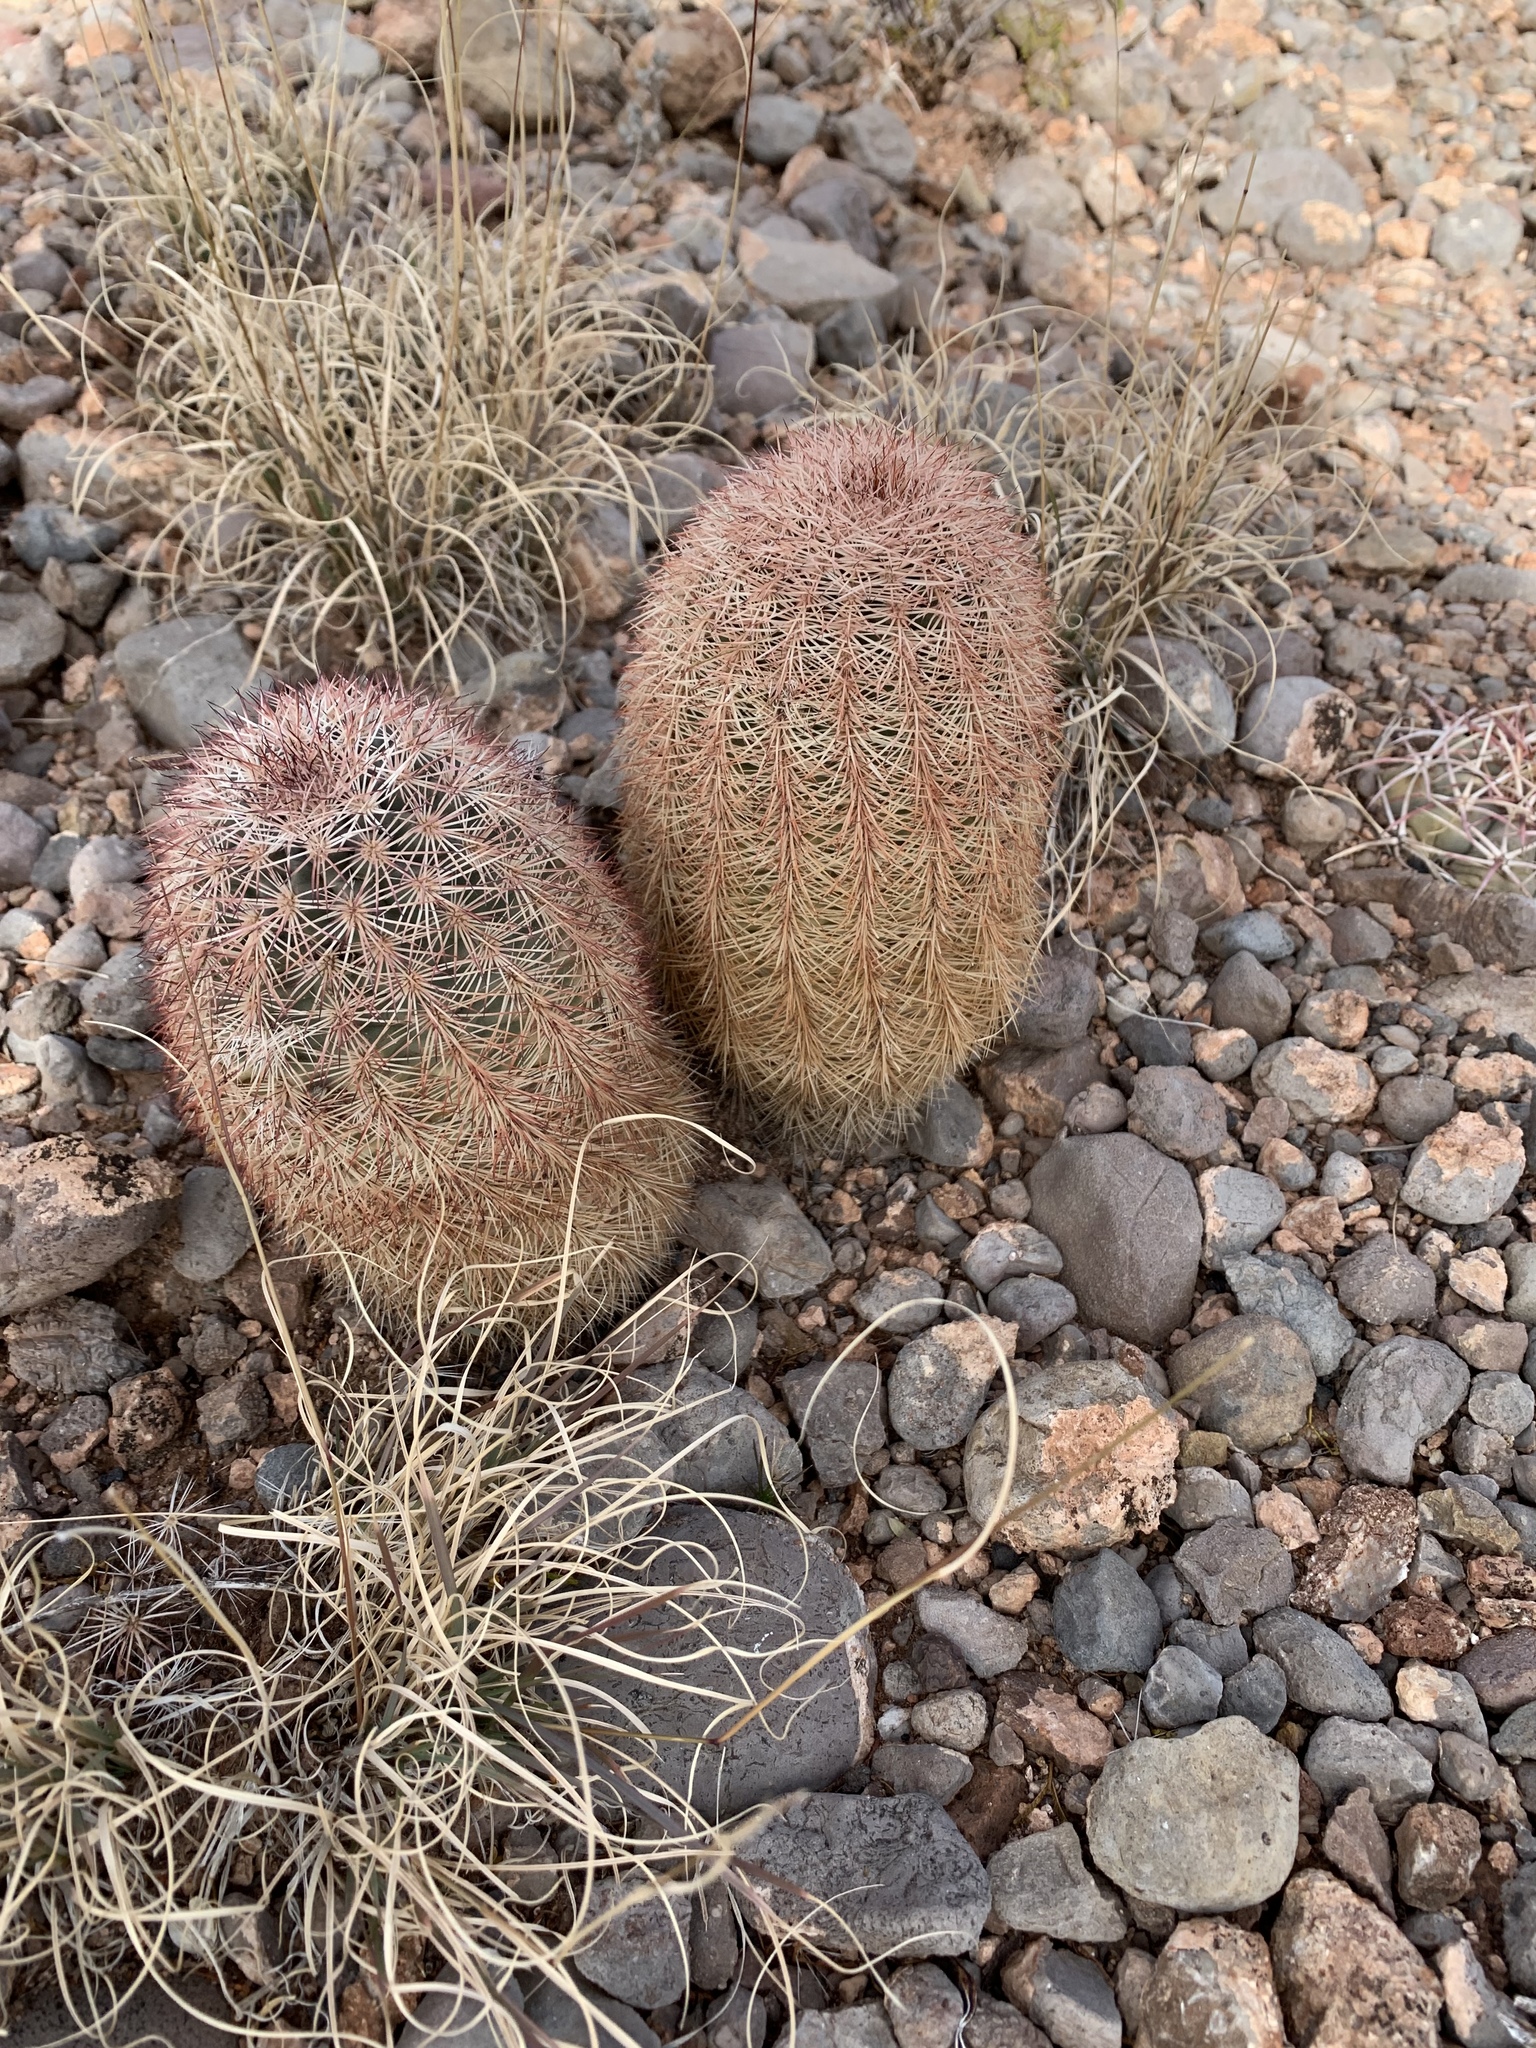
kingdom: Plantae
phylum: Tracheophyta
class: Magnoliopsida
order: Caryophyllales
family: Cactaceae
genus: Echinocereus
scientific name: Echinocereus dasyacanthus
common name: Spiny hedgehog cactus
